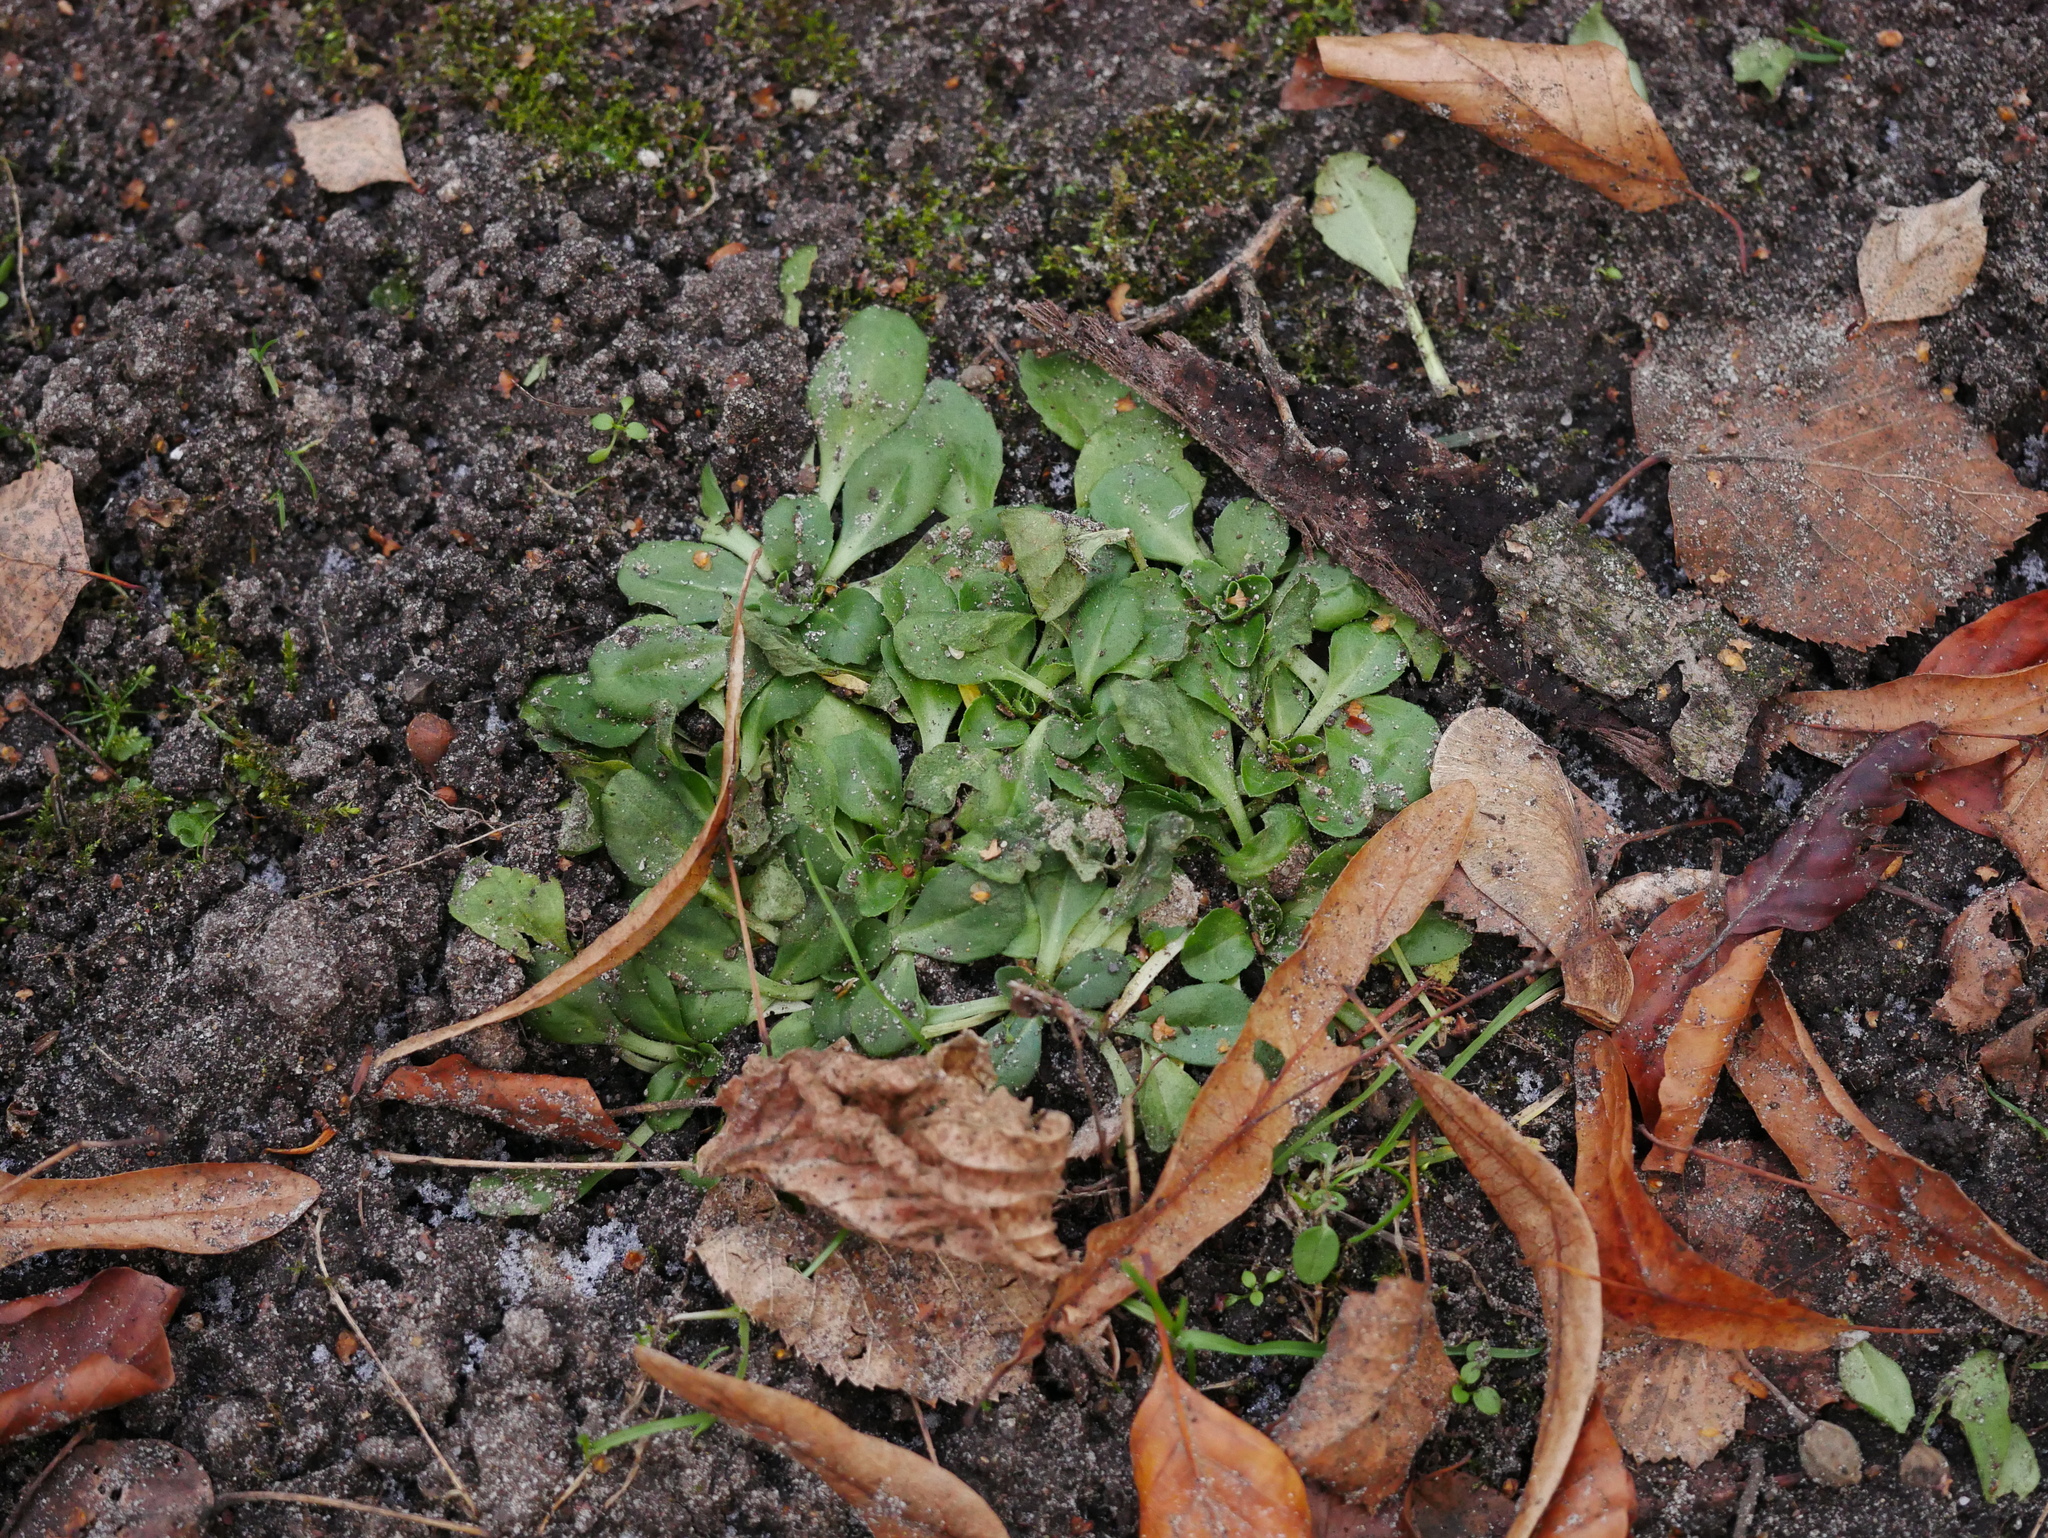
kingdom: Plantae
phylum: Tracheophyta
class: Magnoliopsida
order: Asterales
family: Asteraceae
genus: Bellis
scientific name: Bellis perennis
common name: Lawndaisy
